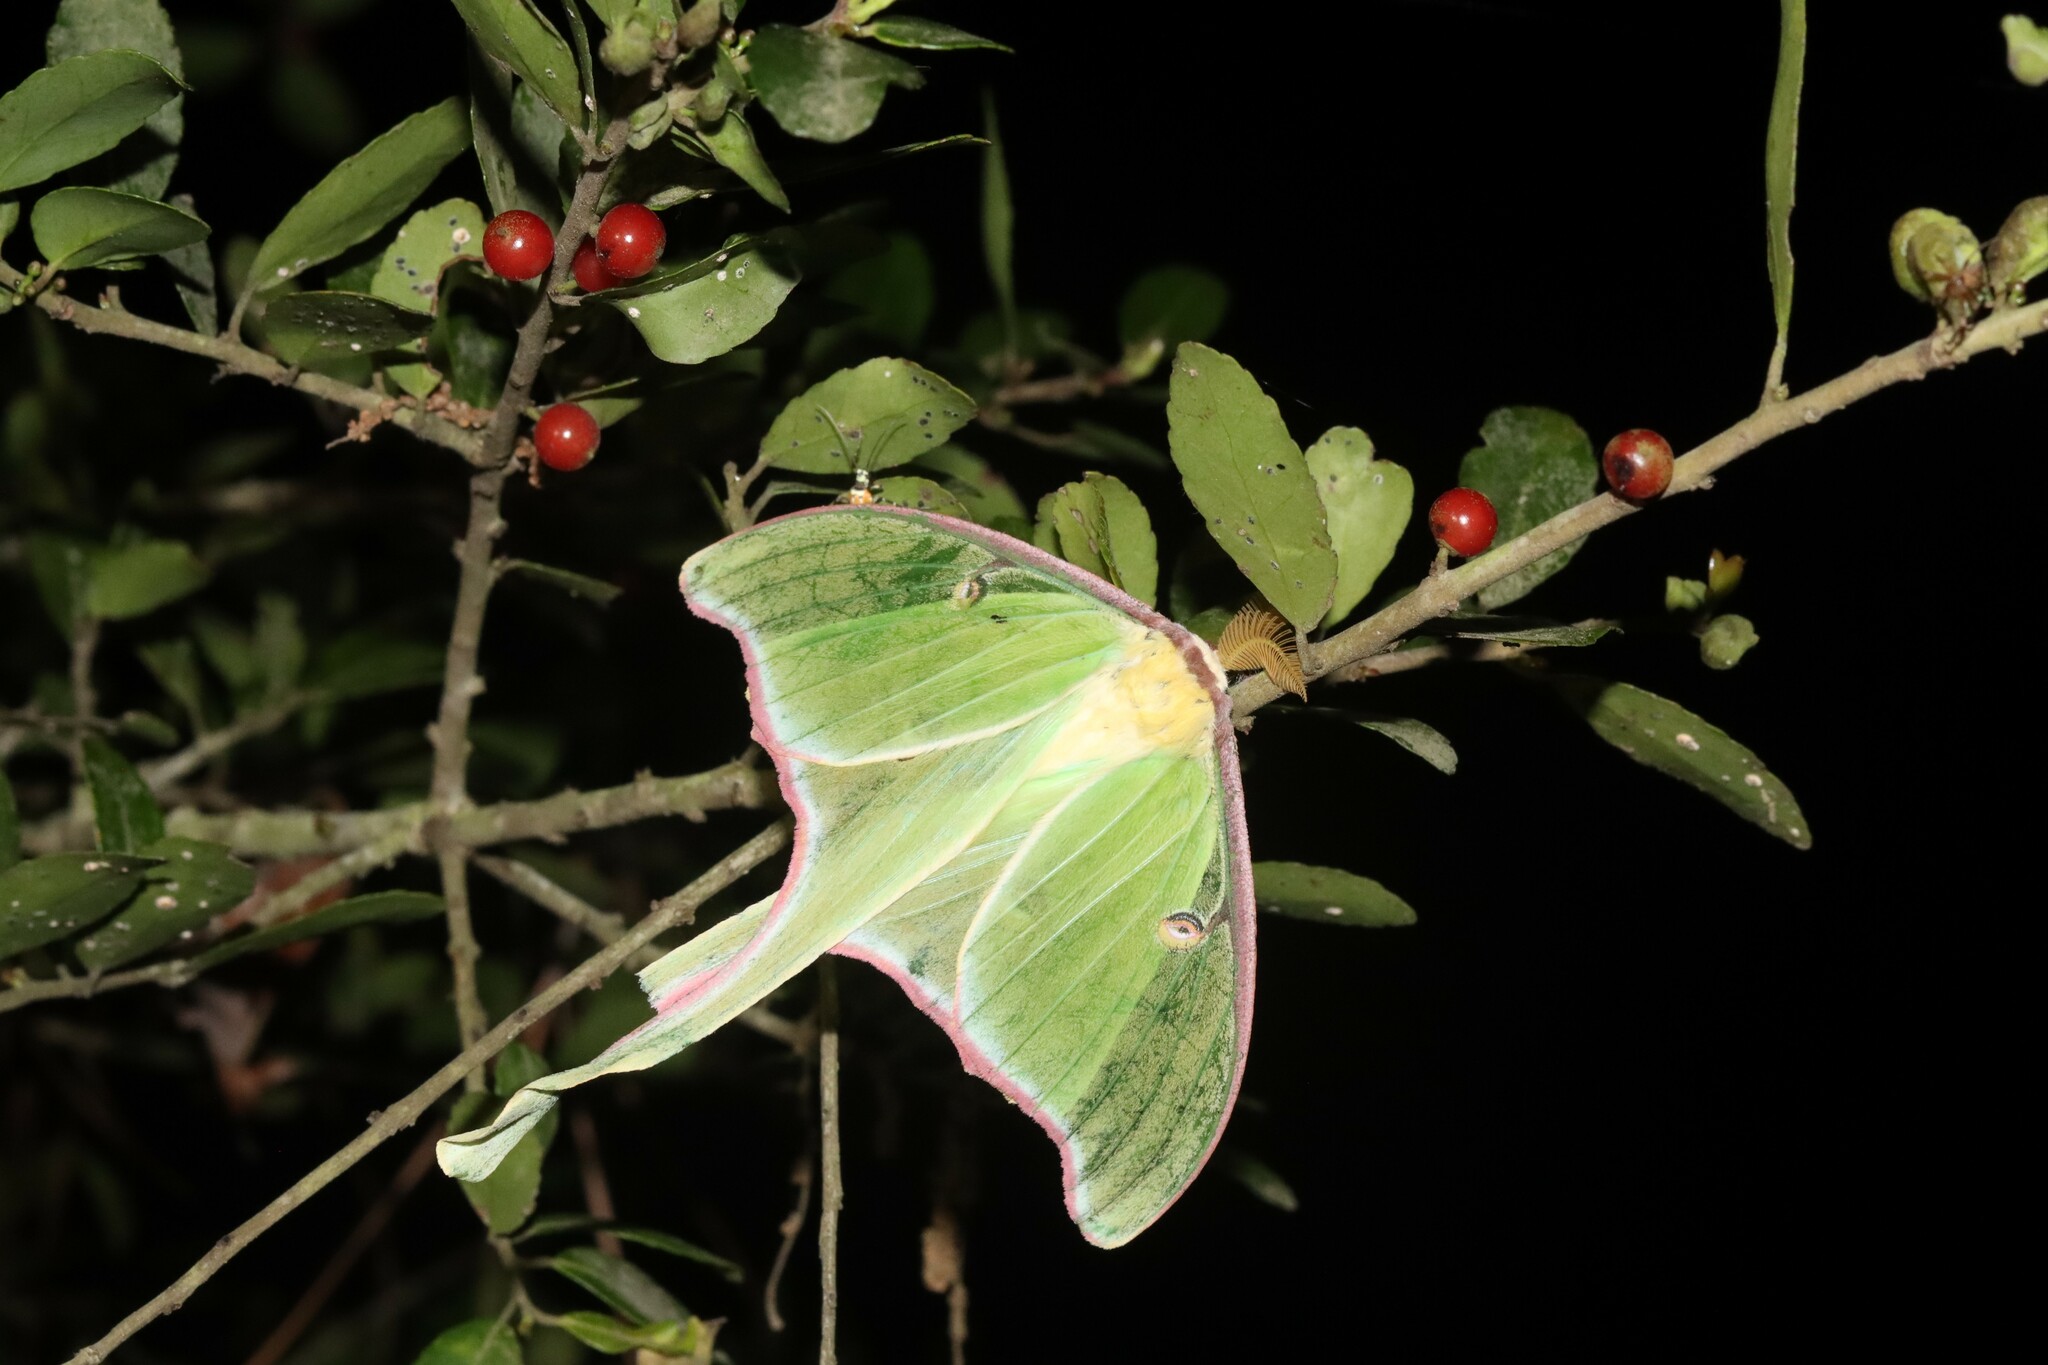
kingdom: Animalia
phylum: Arthropoda
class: Insecta
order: Lepidoptera
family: Saturniidae
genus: Actias
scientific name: Actias luna
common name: Luna moth
